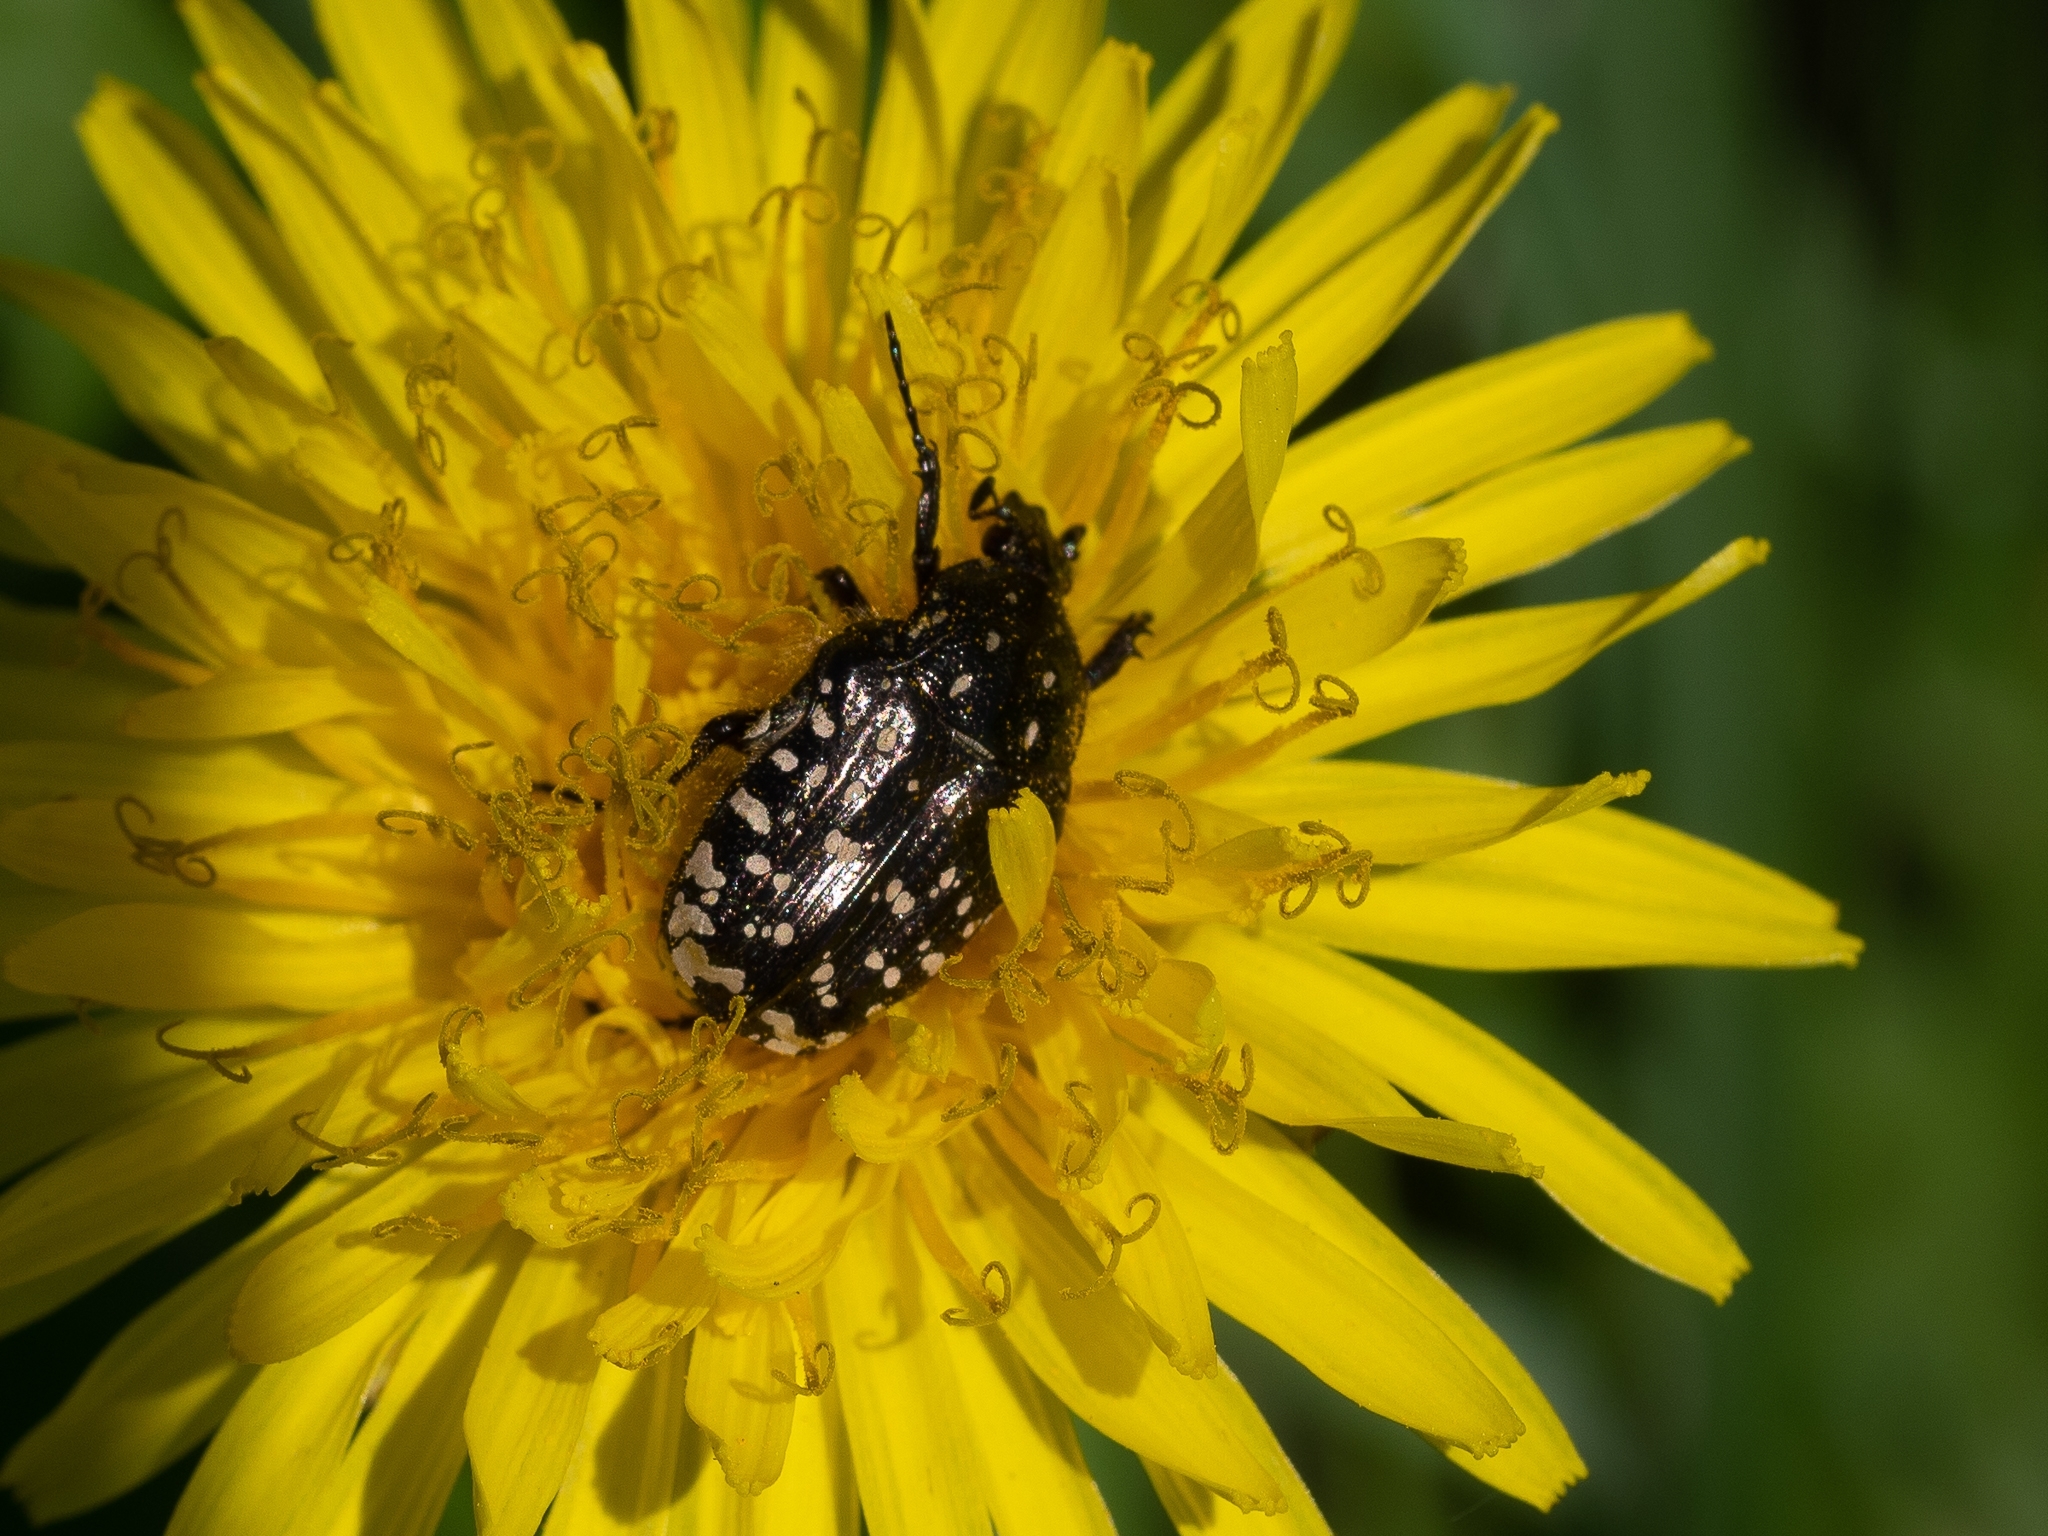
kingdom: Animalia
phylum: Arthropoda
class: Insecta
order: Coleoptera
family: Scarabaeidae
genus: Oxythyrea
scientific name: Oxythyrea funesta
